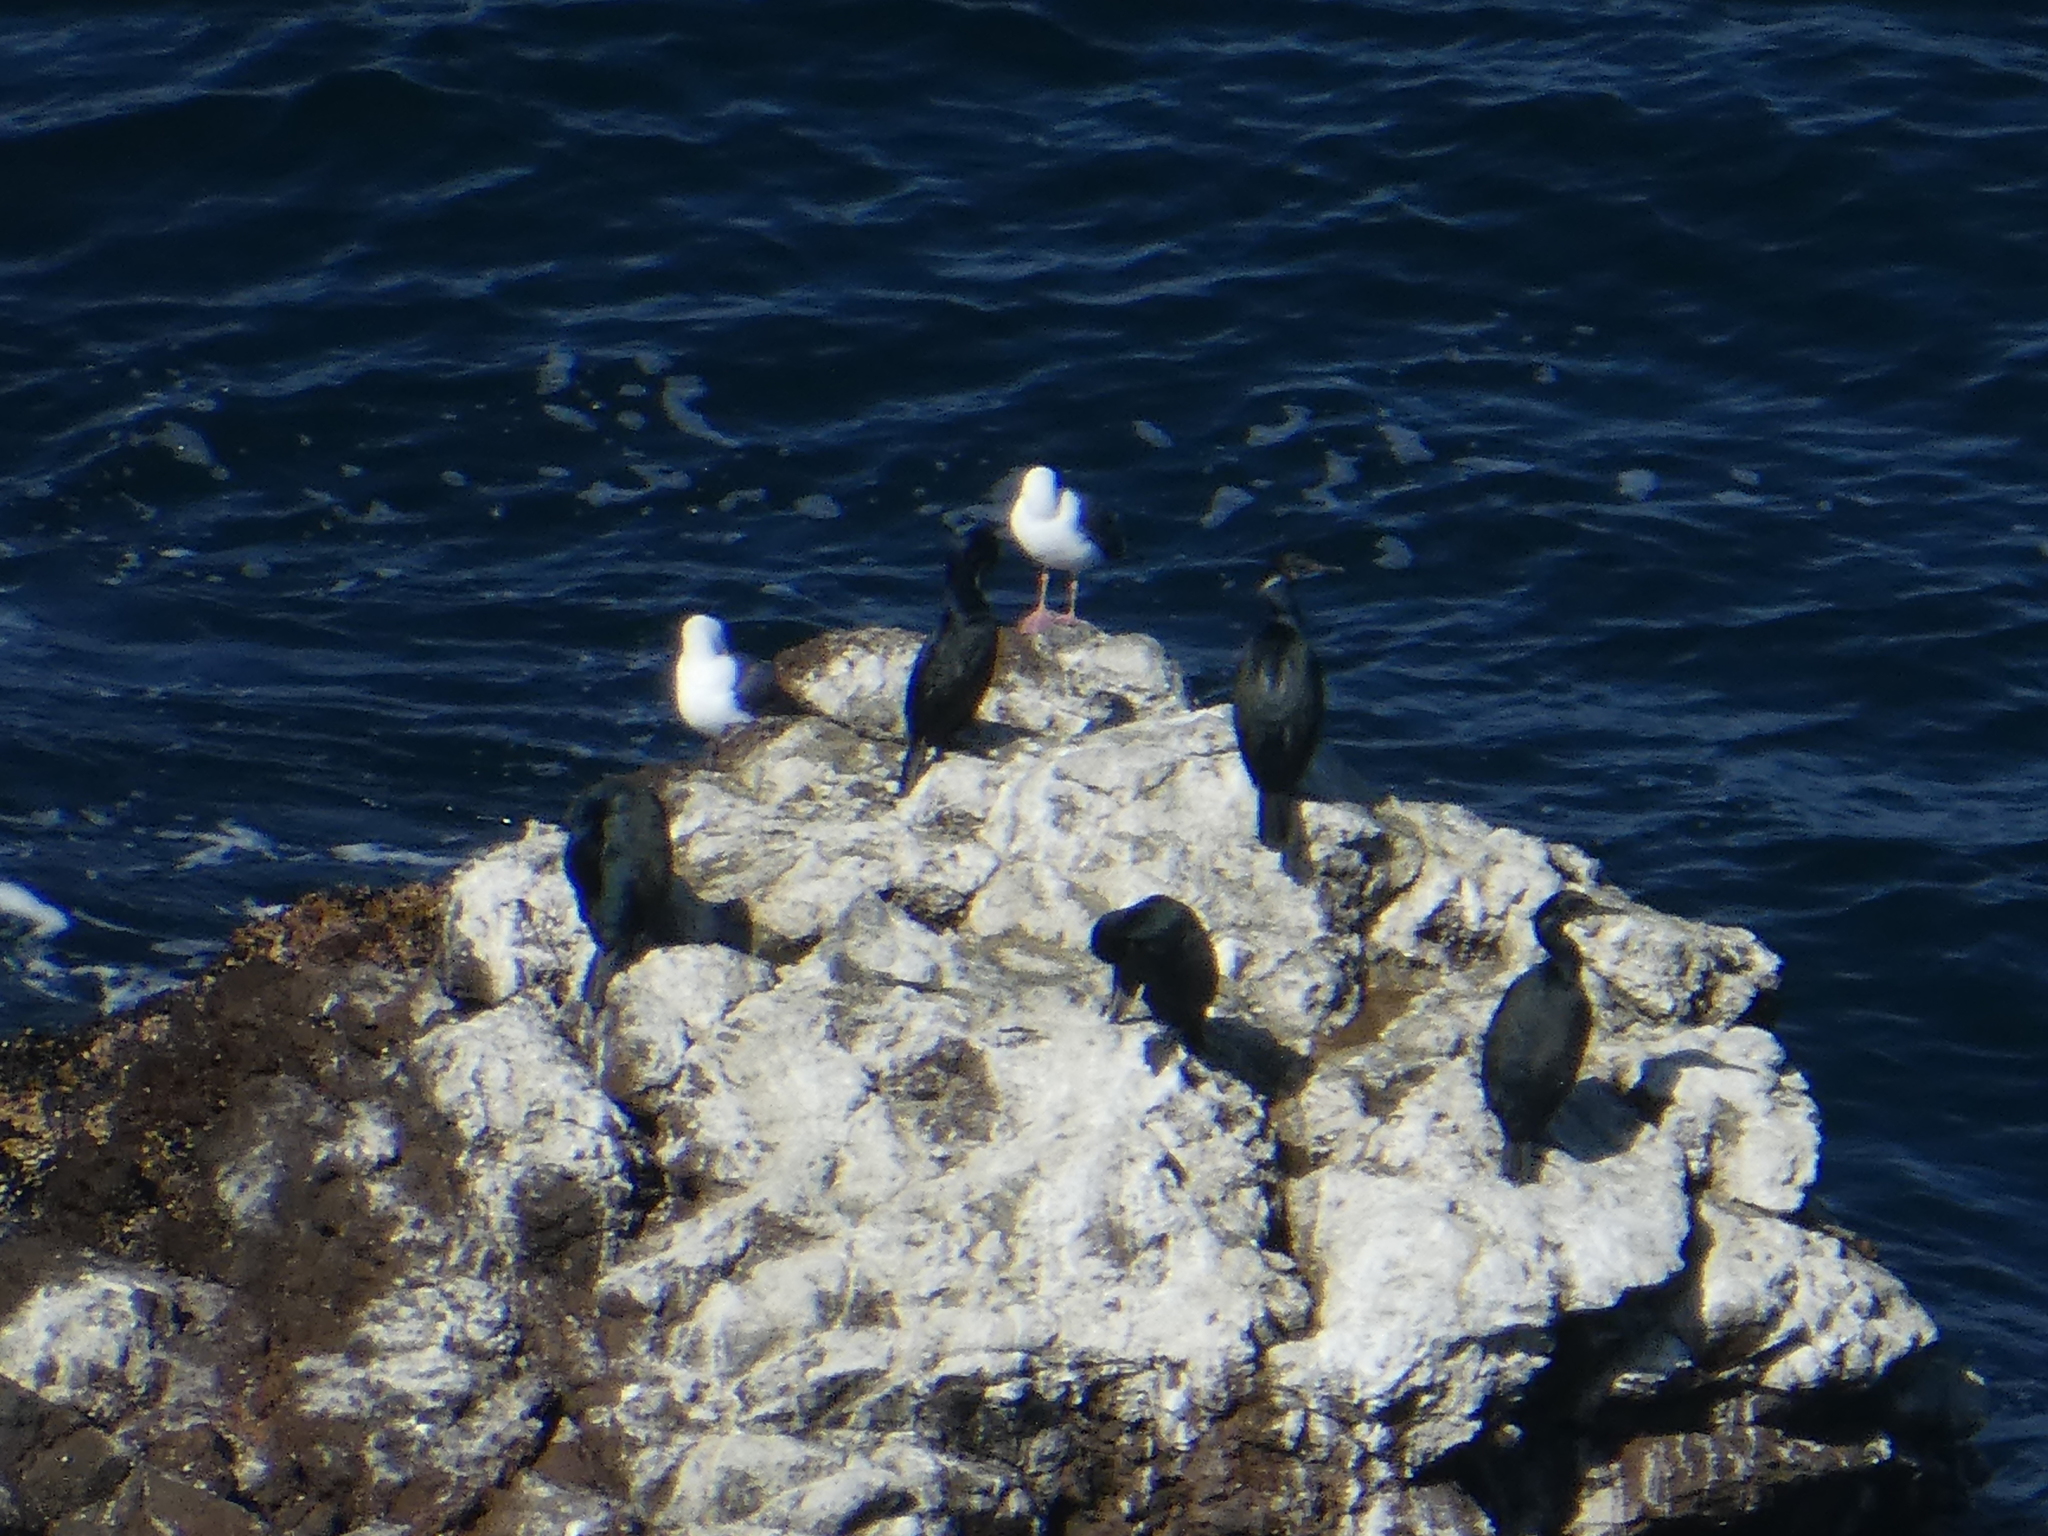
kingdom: Animalia
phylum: Chordata
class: Aves
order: Suliformes
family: Phalacrocoracidae
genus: Urile
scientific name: Urile penicillatus
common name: Brandt's cormorant
